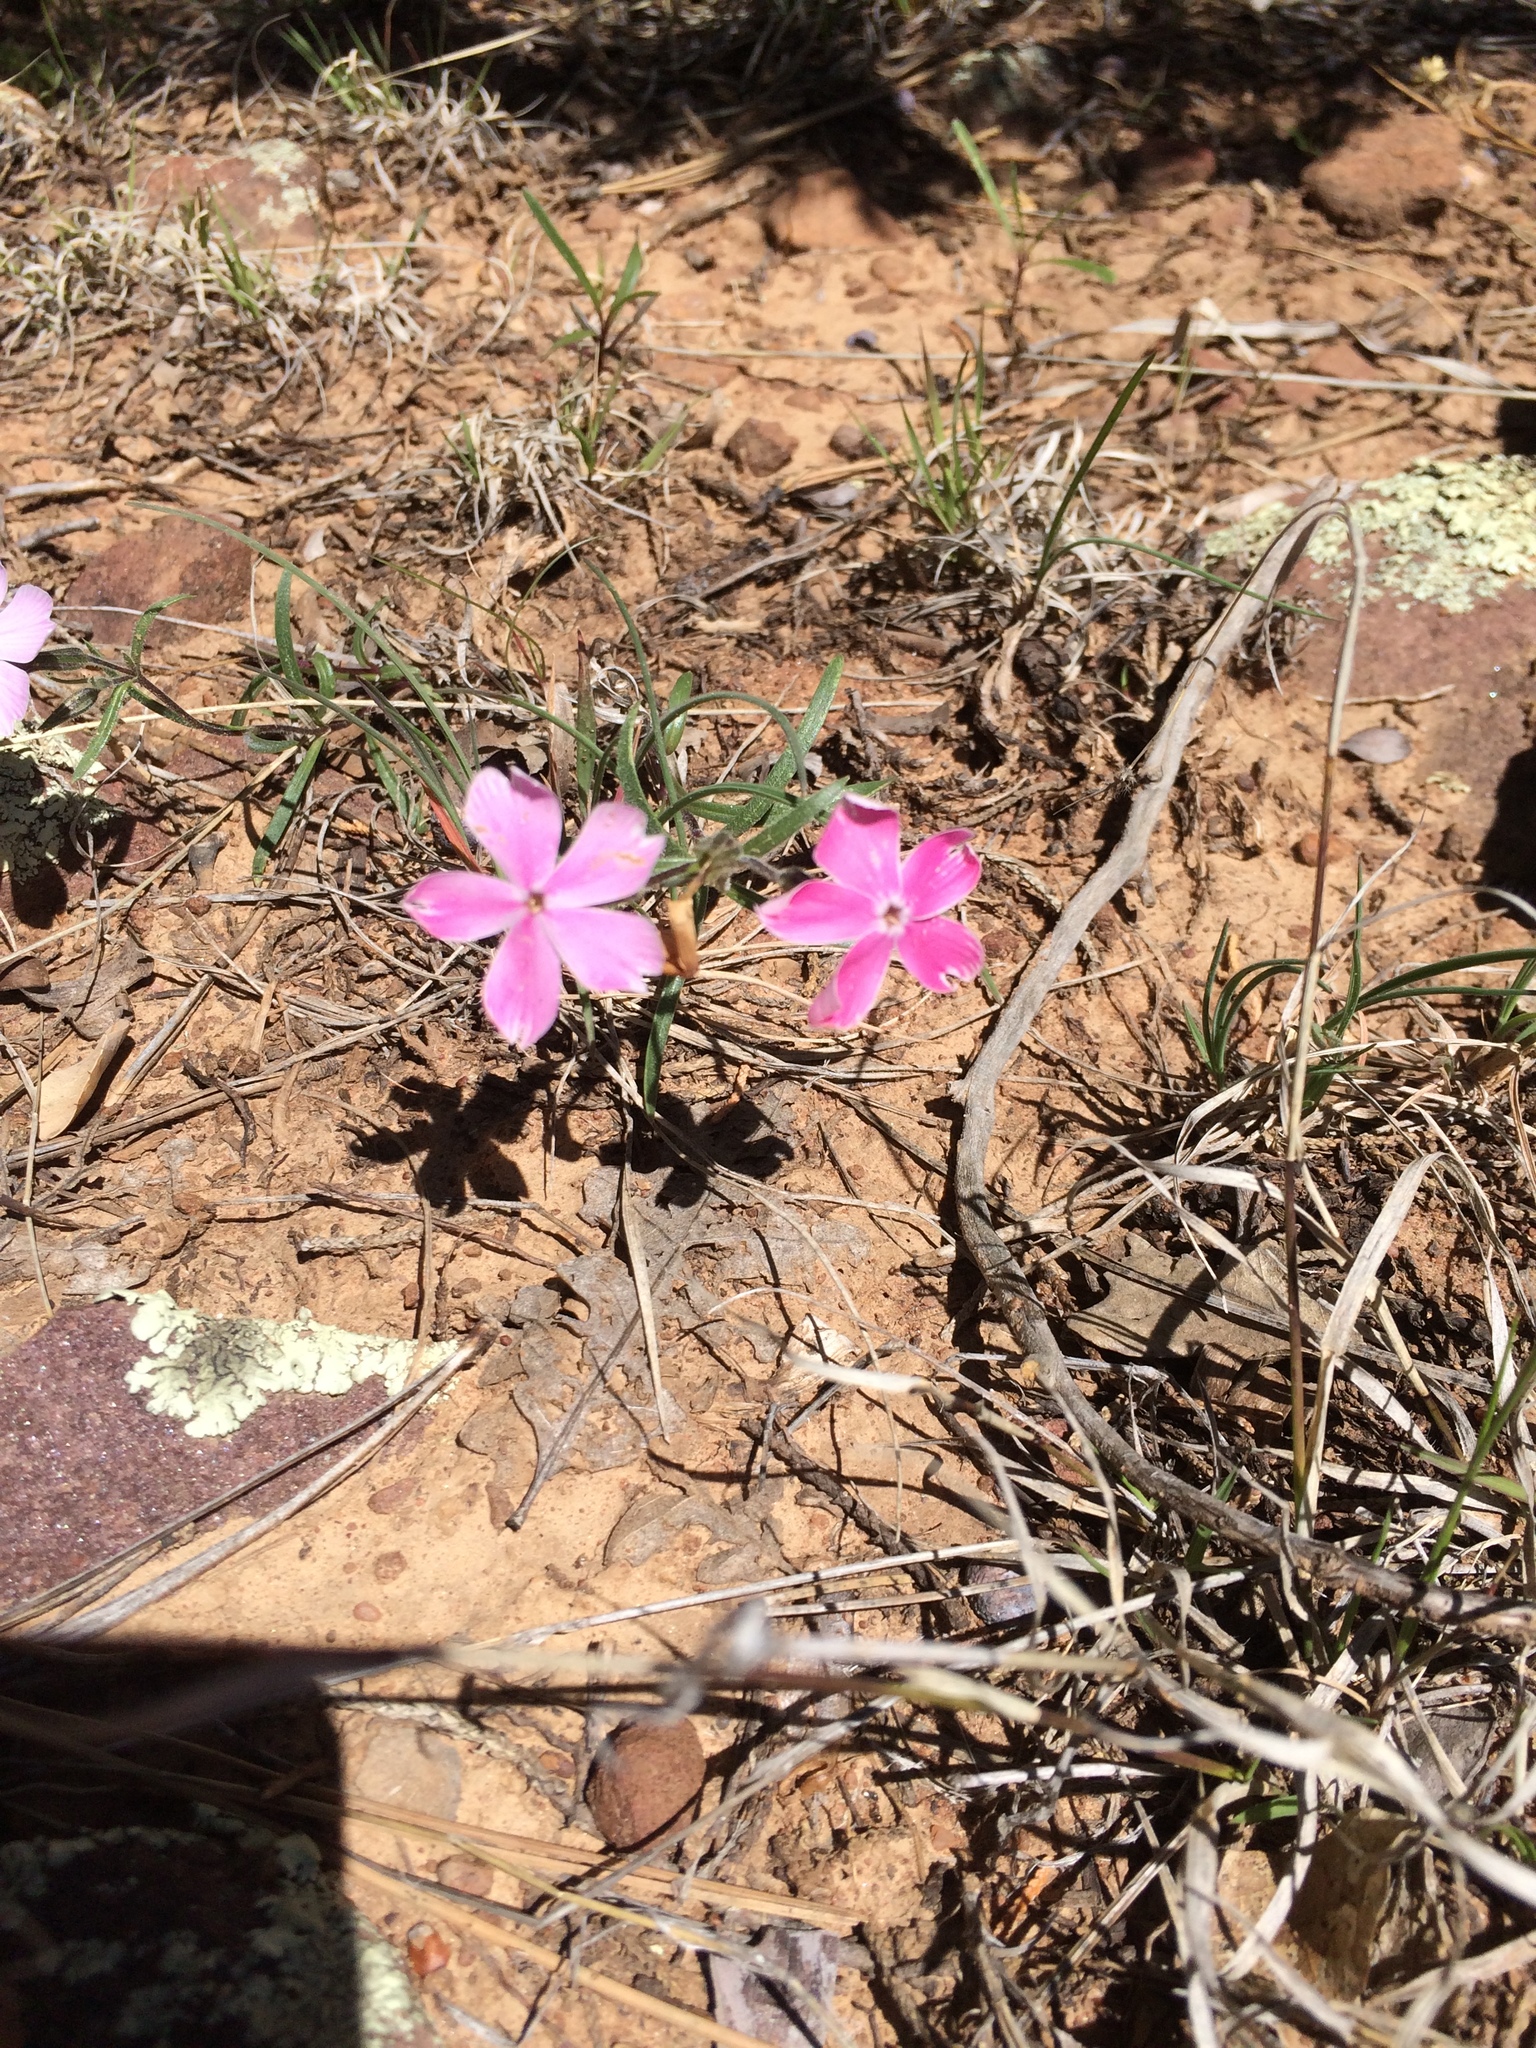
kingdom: Plantae
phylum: Tracheophyta
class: Magnoliopsida
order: Ericales
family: Polemoniaceae
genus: Phlox
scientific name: Phlox amabilis
